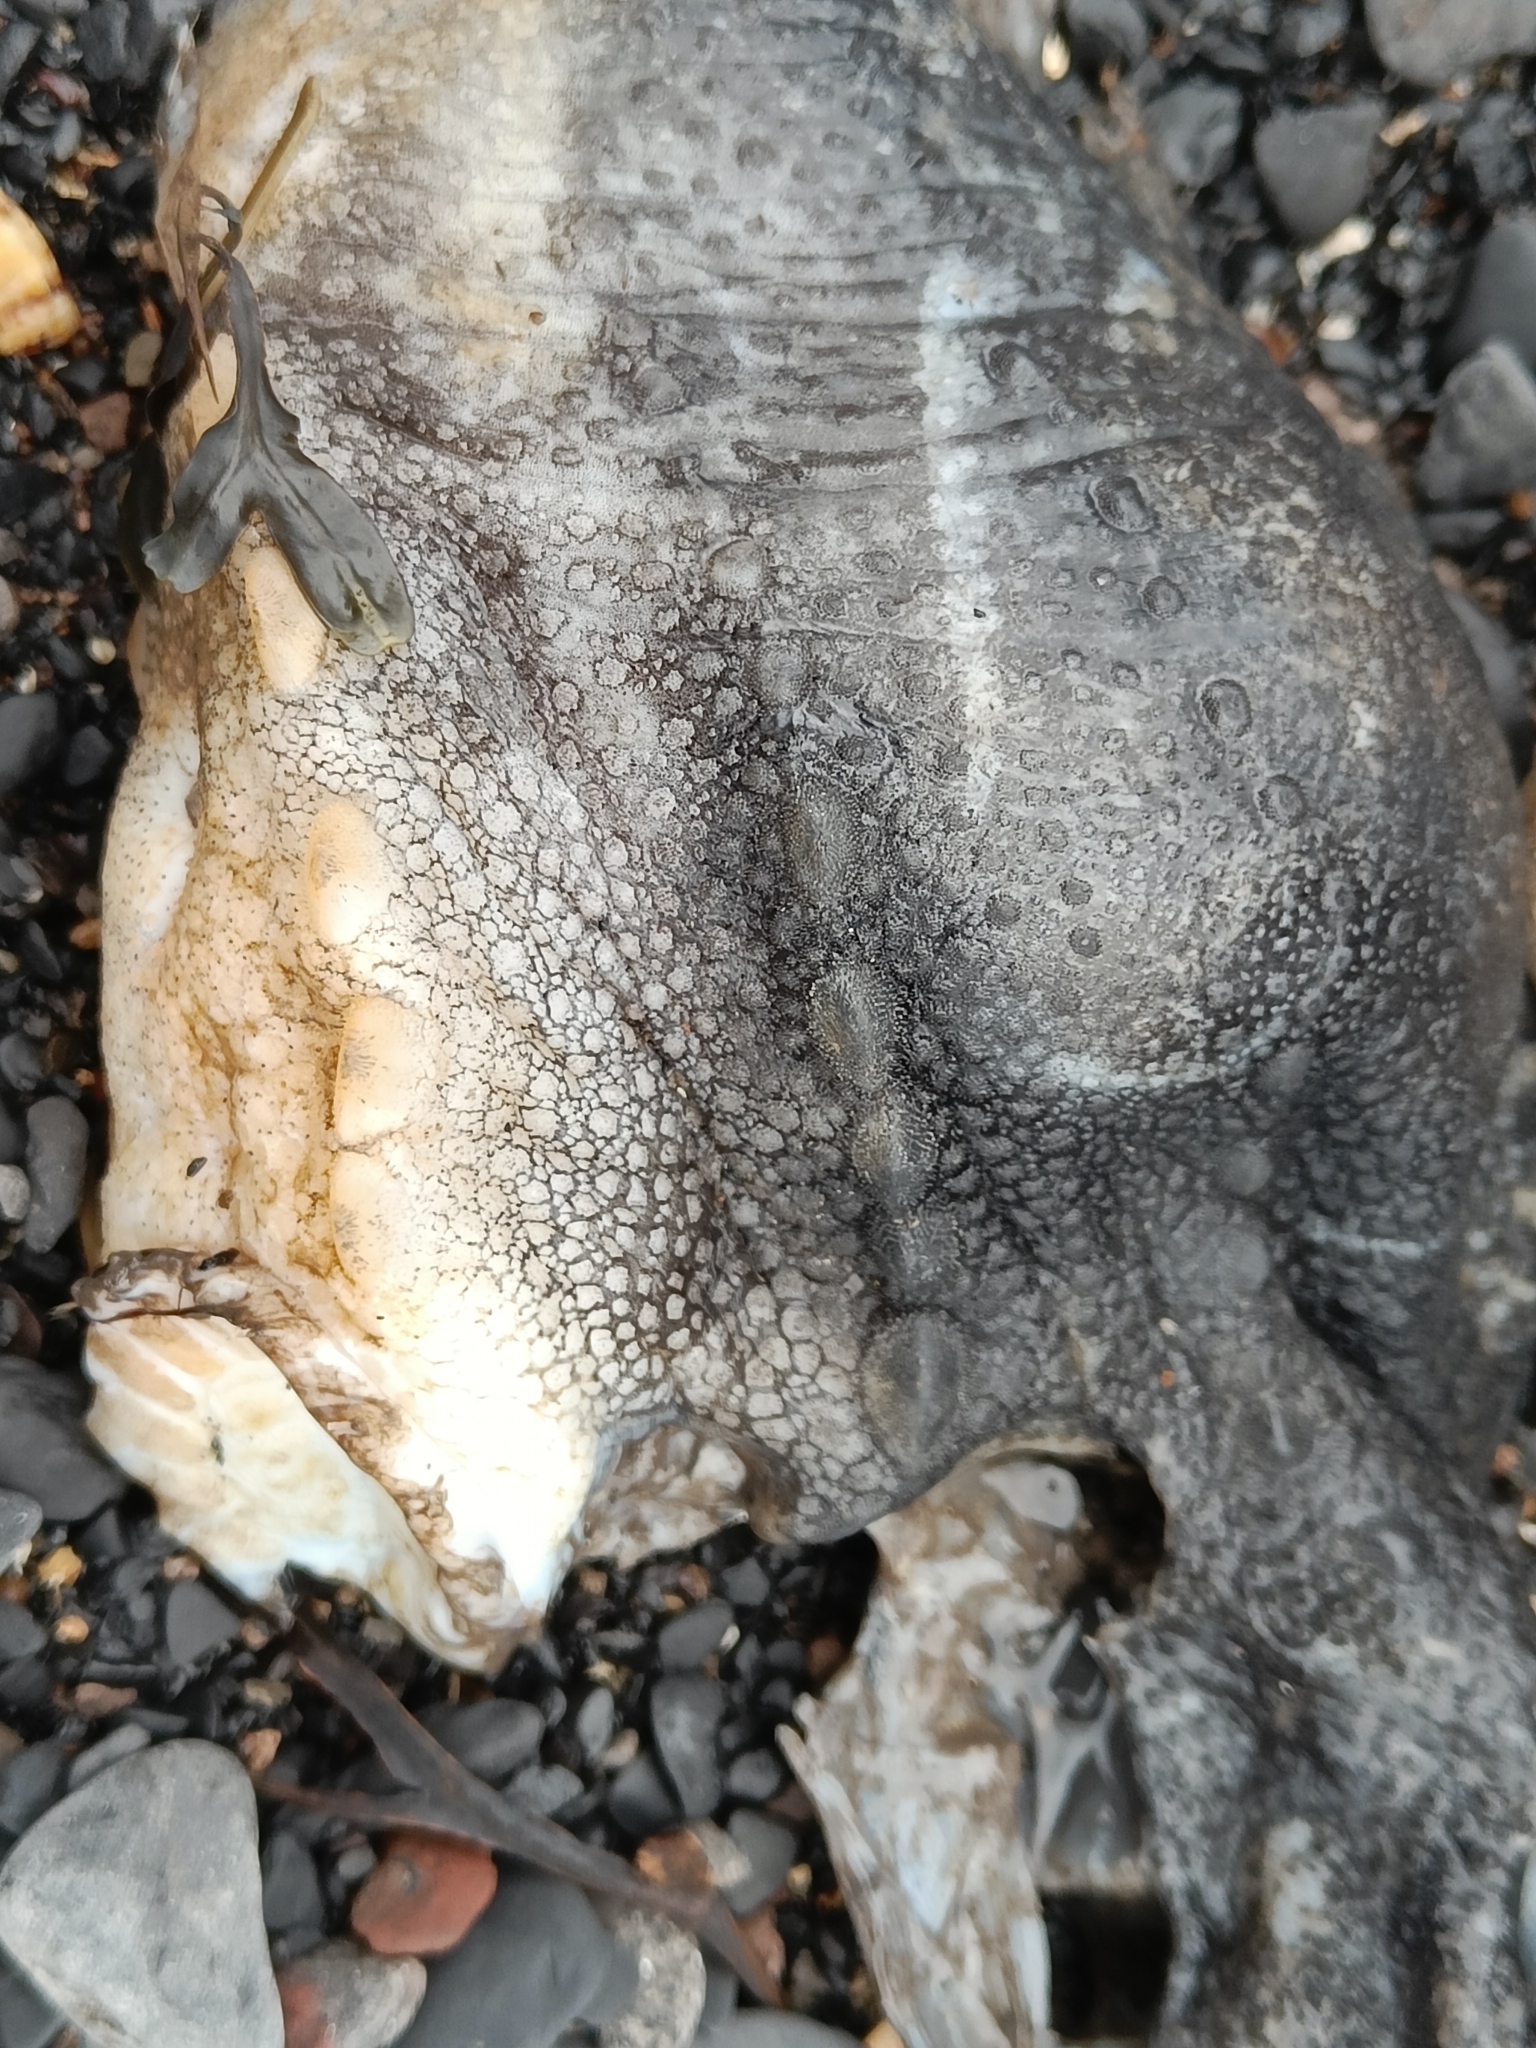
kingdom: Animalia
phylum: Chordata
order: Scorpaeniformes
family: Cyclopteridae
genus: Cyclopterus
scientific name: Cyclopterus lumpus
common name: Lumpsucker
